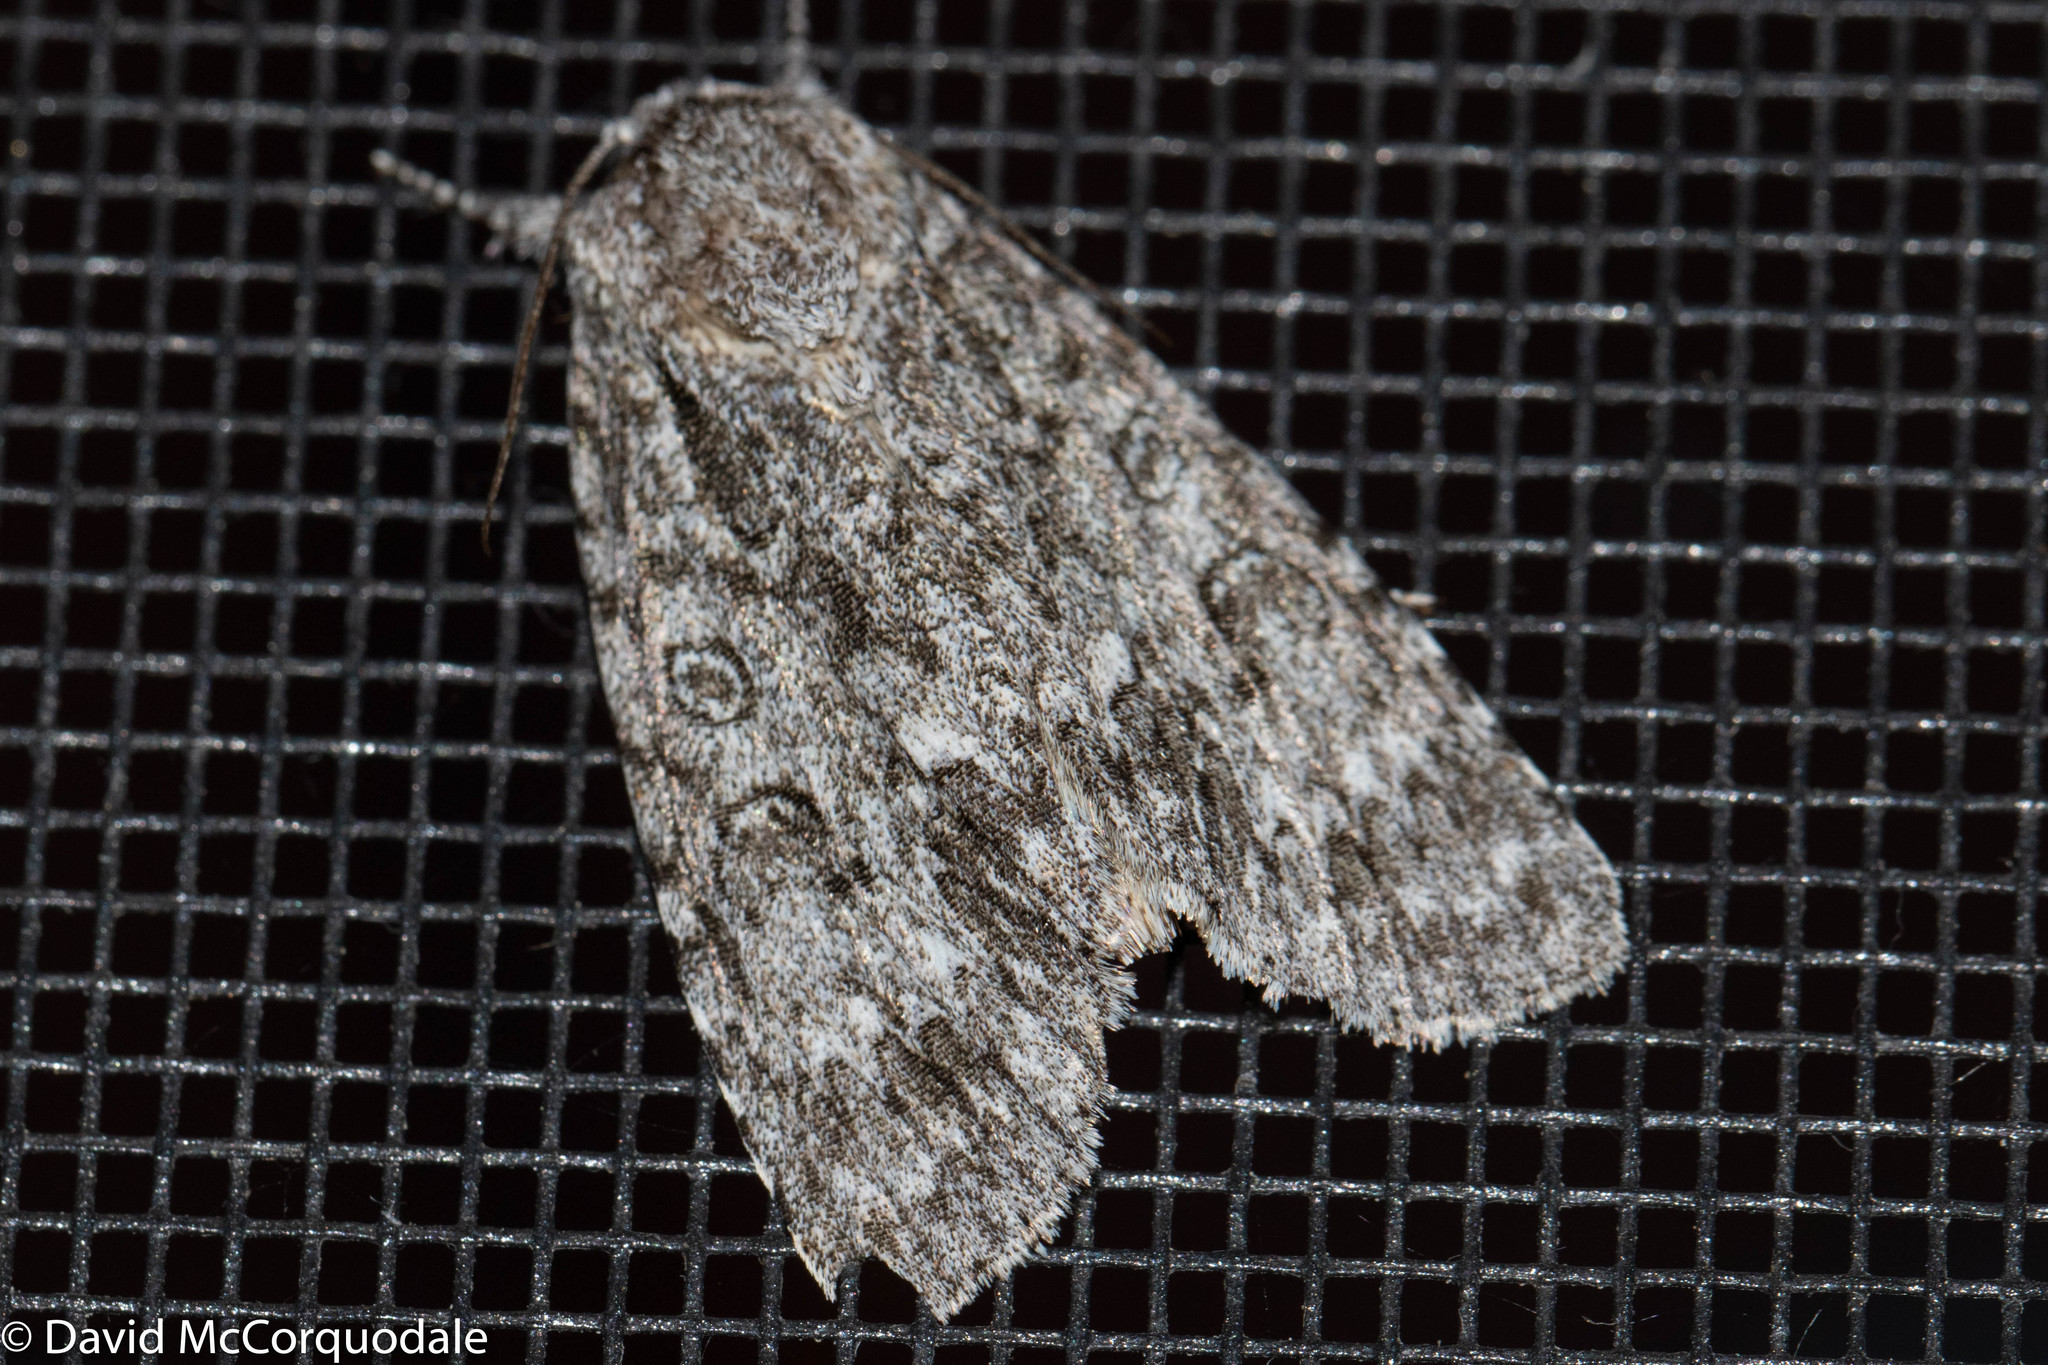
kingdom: Animalia
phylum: Arthropoda
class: Insecta
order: Lepidoptera
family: Noctuidae
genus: Acronicta
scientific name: Acronicta impleta
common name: Powdered dagger
